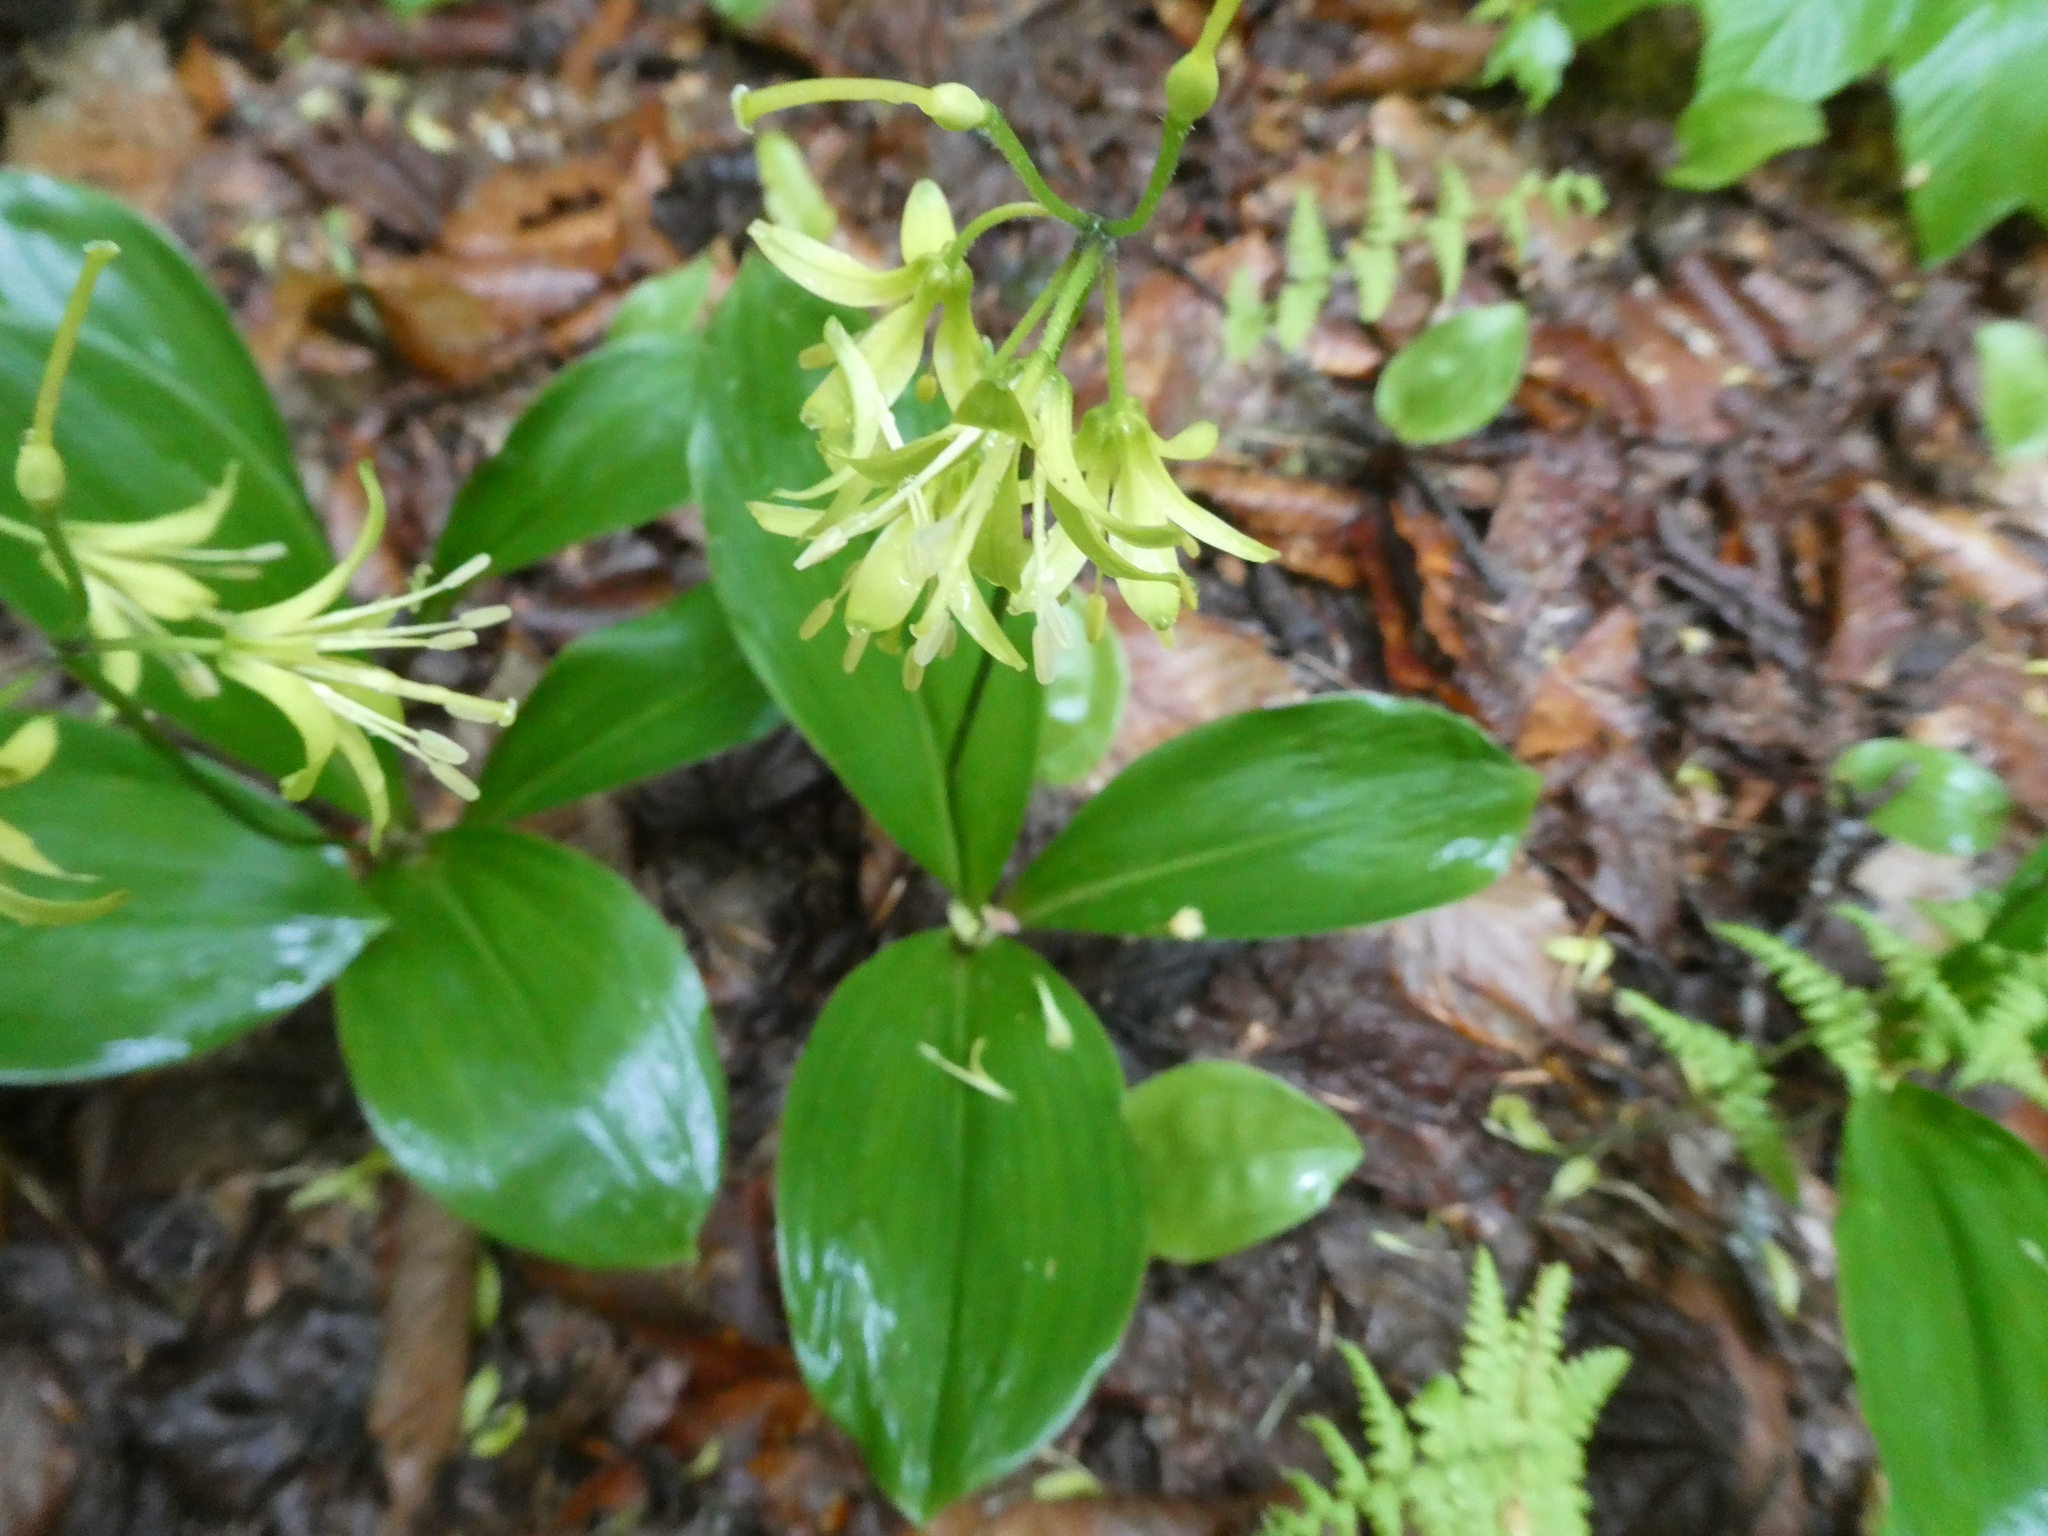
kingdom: Plantae
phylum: Tracheophyta
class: Liliopsida
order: Liliales
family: Liliaceae
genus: Clintonia
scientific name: Clintonia borealis
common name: Yellow clintonia
